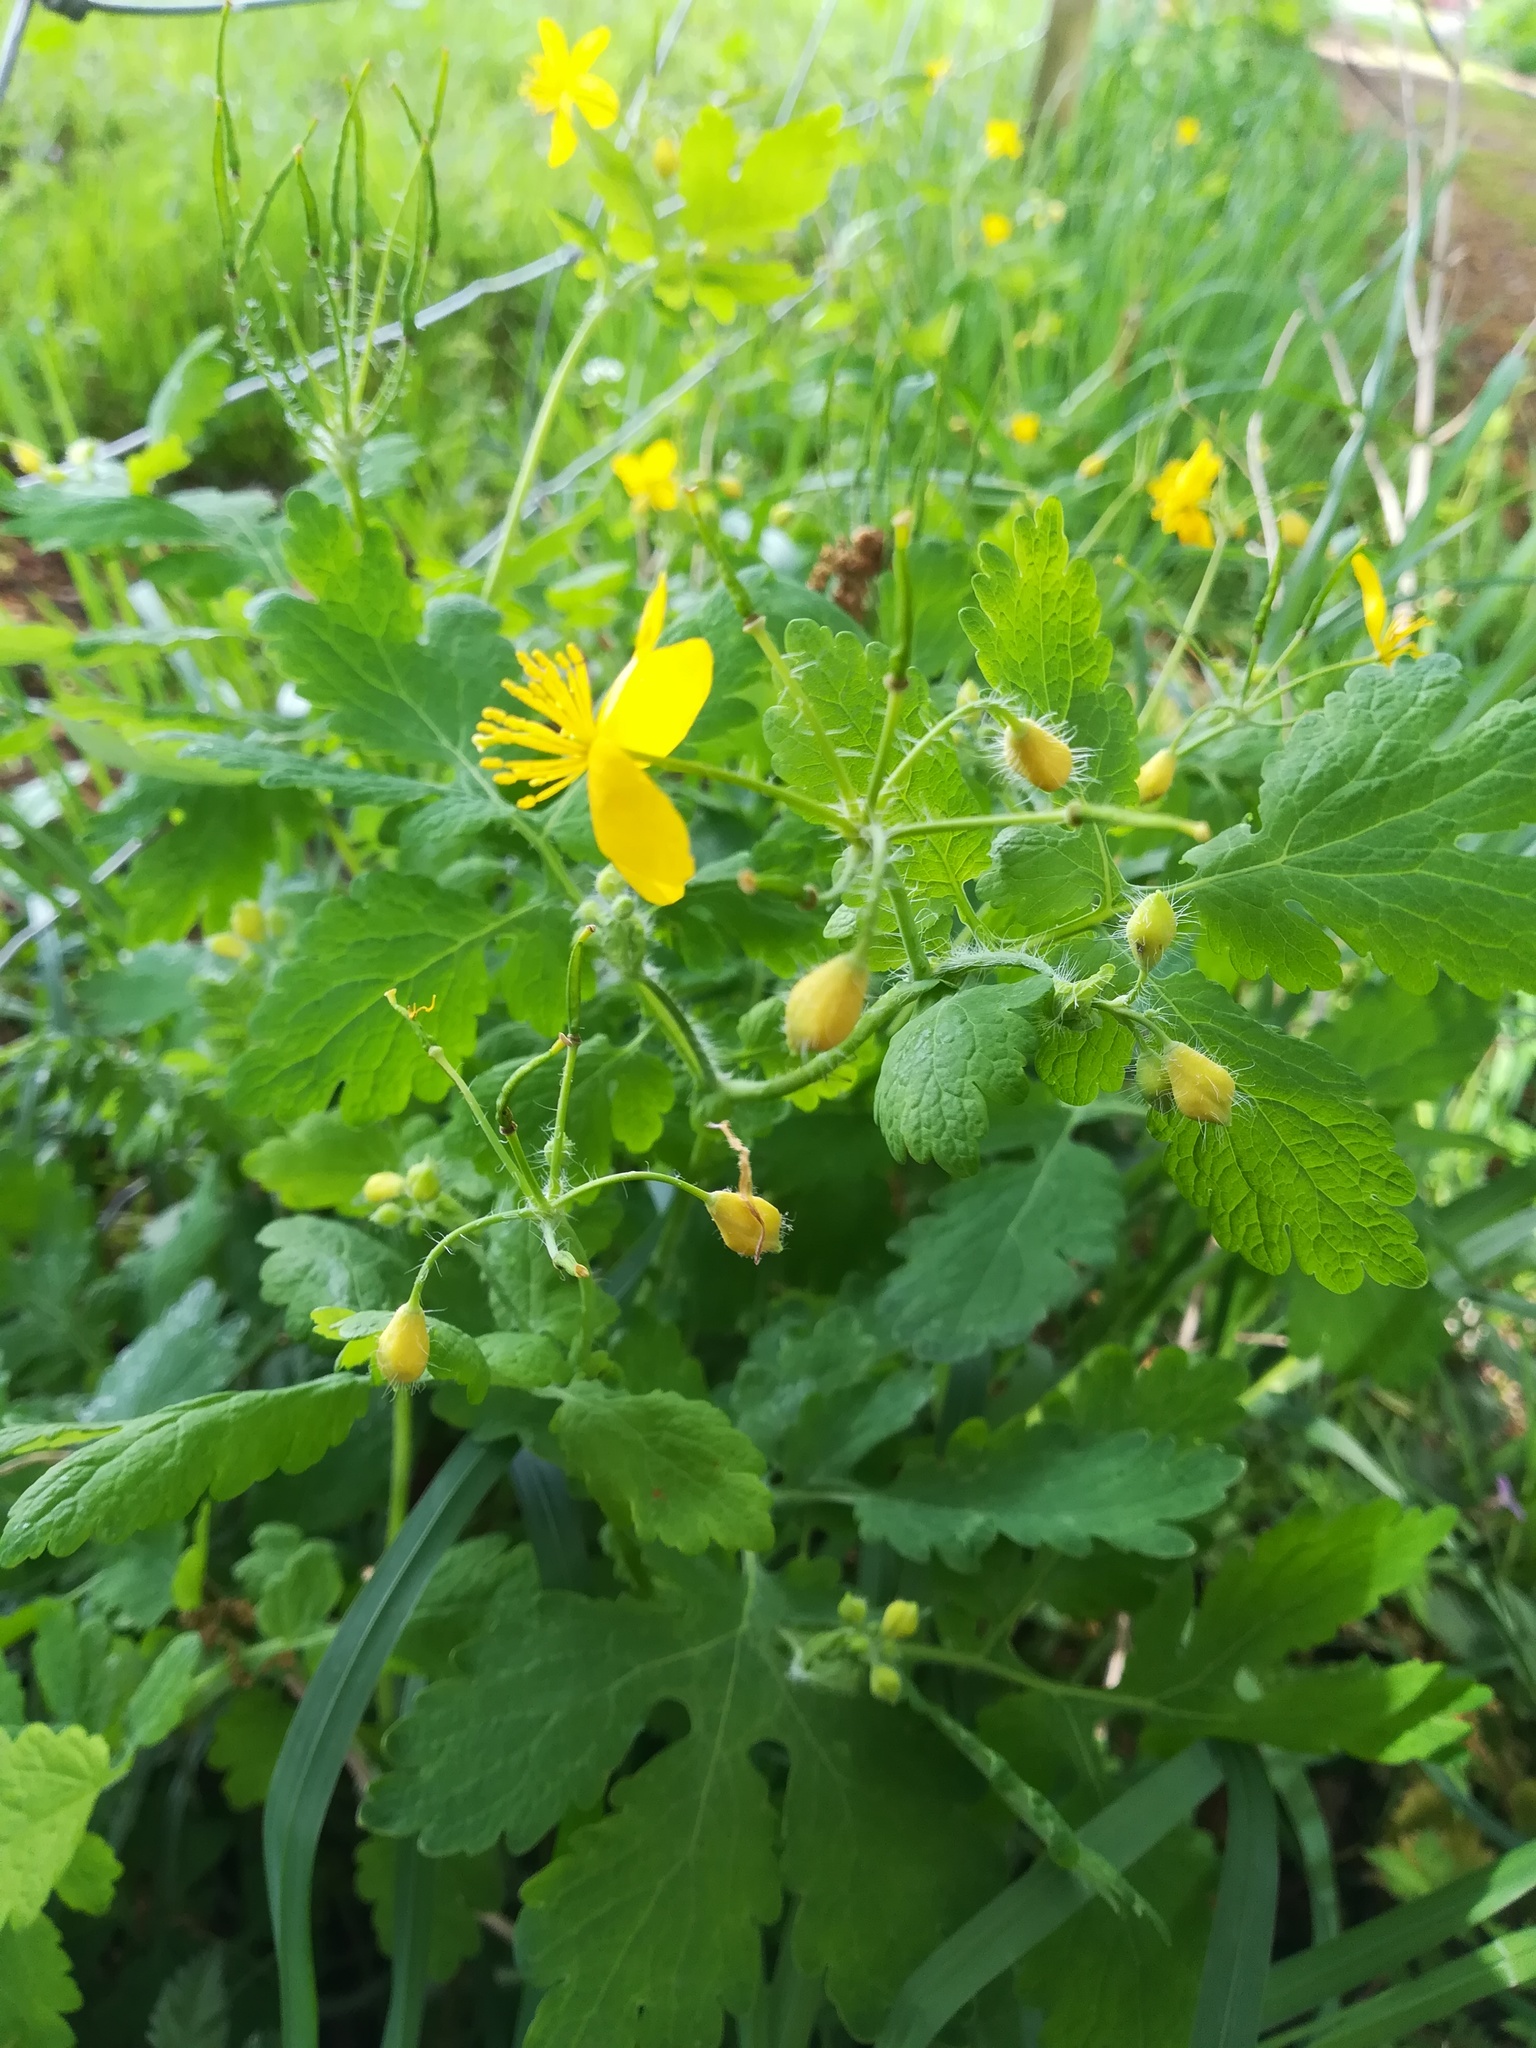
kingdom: Plantae
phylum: Tracheophyta
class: Magnoliopsida
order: Ranunculales
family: Papaveraceae
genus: Chelidonium
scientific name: Chelidonium majus
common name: Greater celandine
